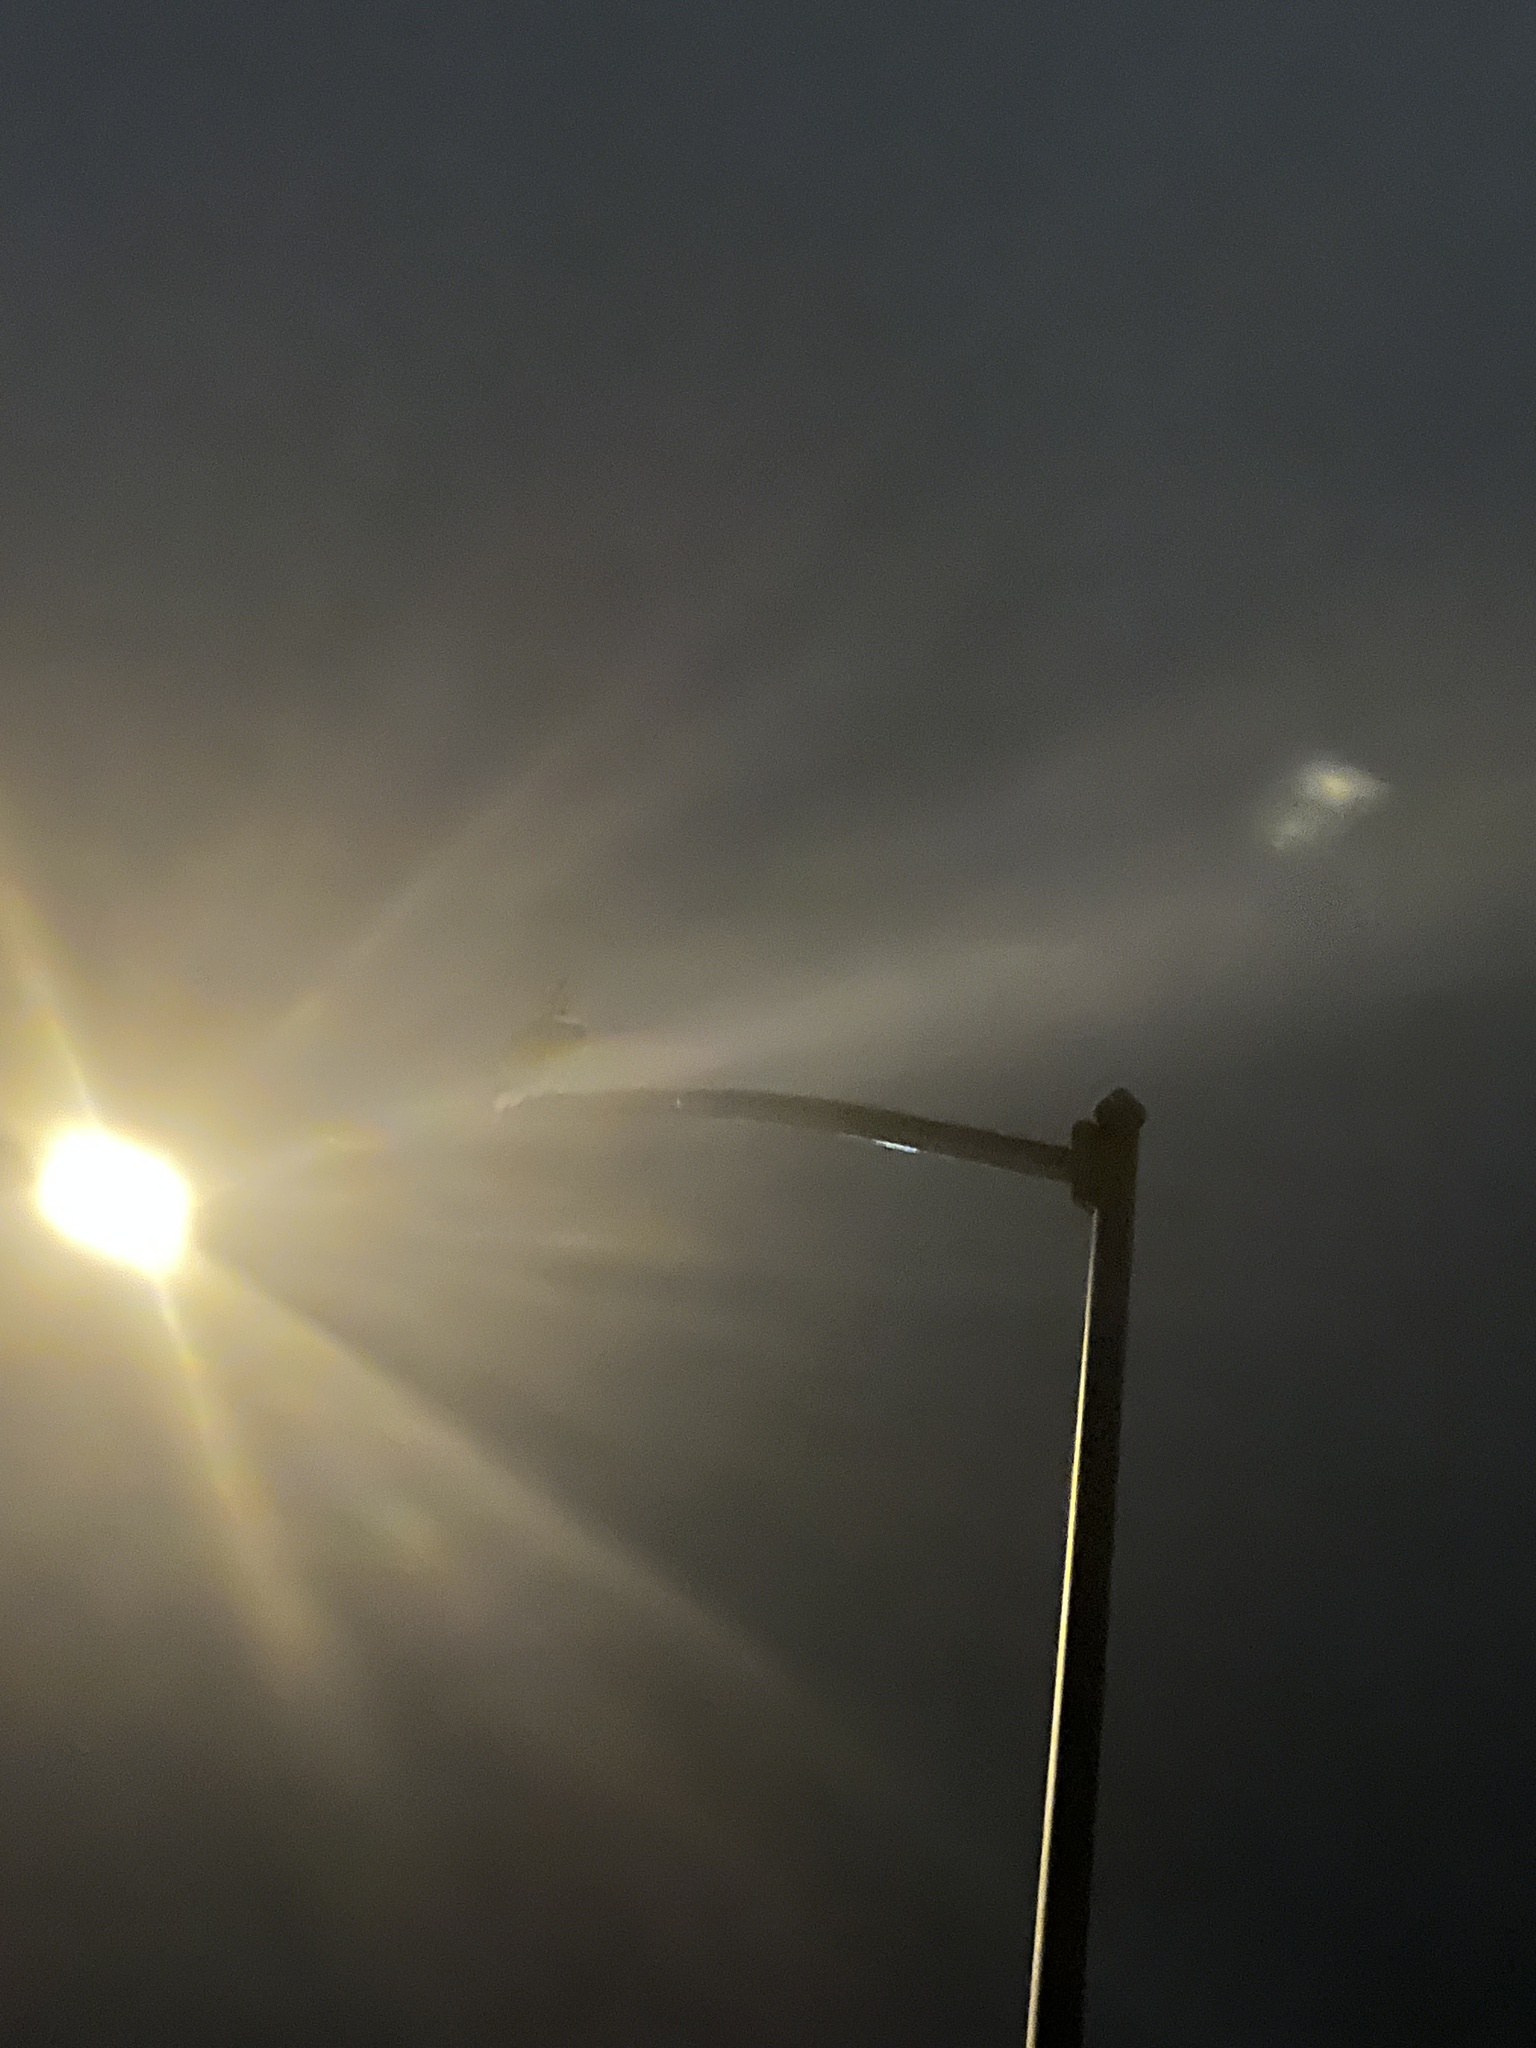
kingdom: Animalia
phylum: Chordata
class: Aves
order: Strigiformes
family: Strigidae
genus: Bubo
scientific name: Bubo virginianus
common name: Great horned owl
